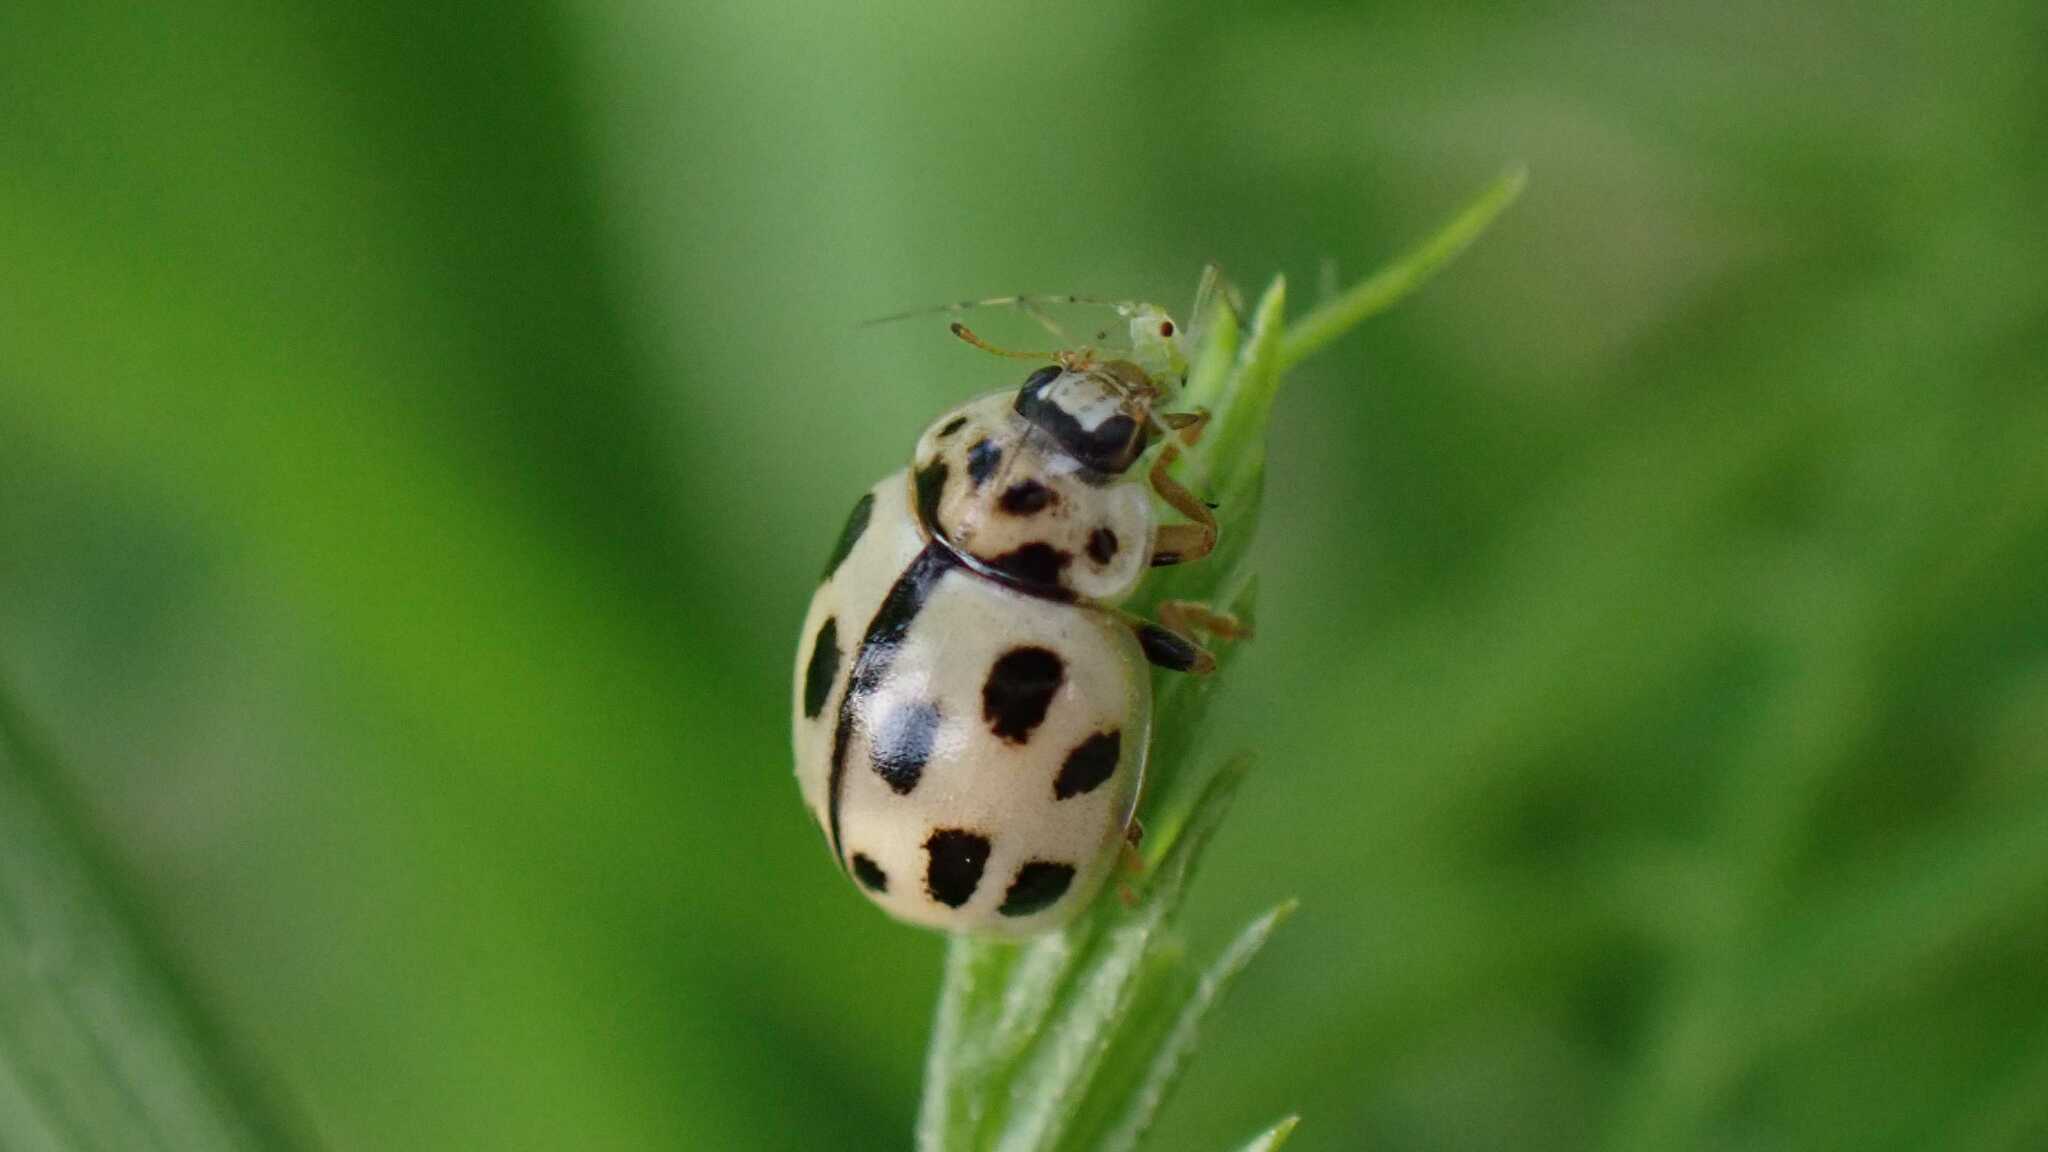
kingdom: Animalia
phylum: Arthropoda
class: Insecta
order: Coleoptera
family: Coccinellidae
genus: Propylaea
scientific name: Propylaea quatuordecimpunctata
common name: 14-spotted ladybird beetle
